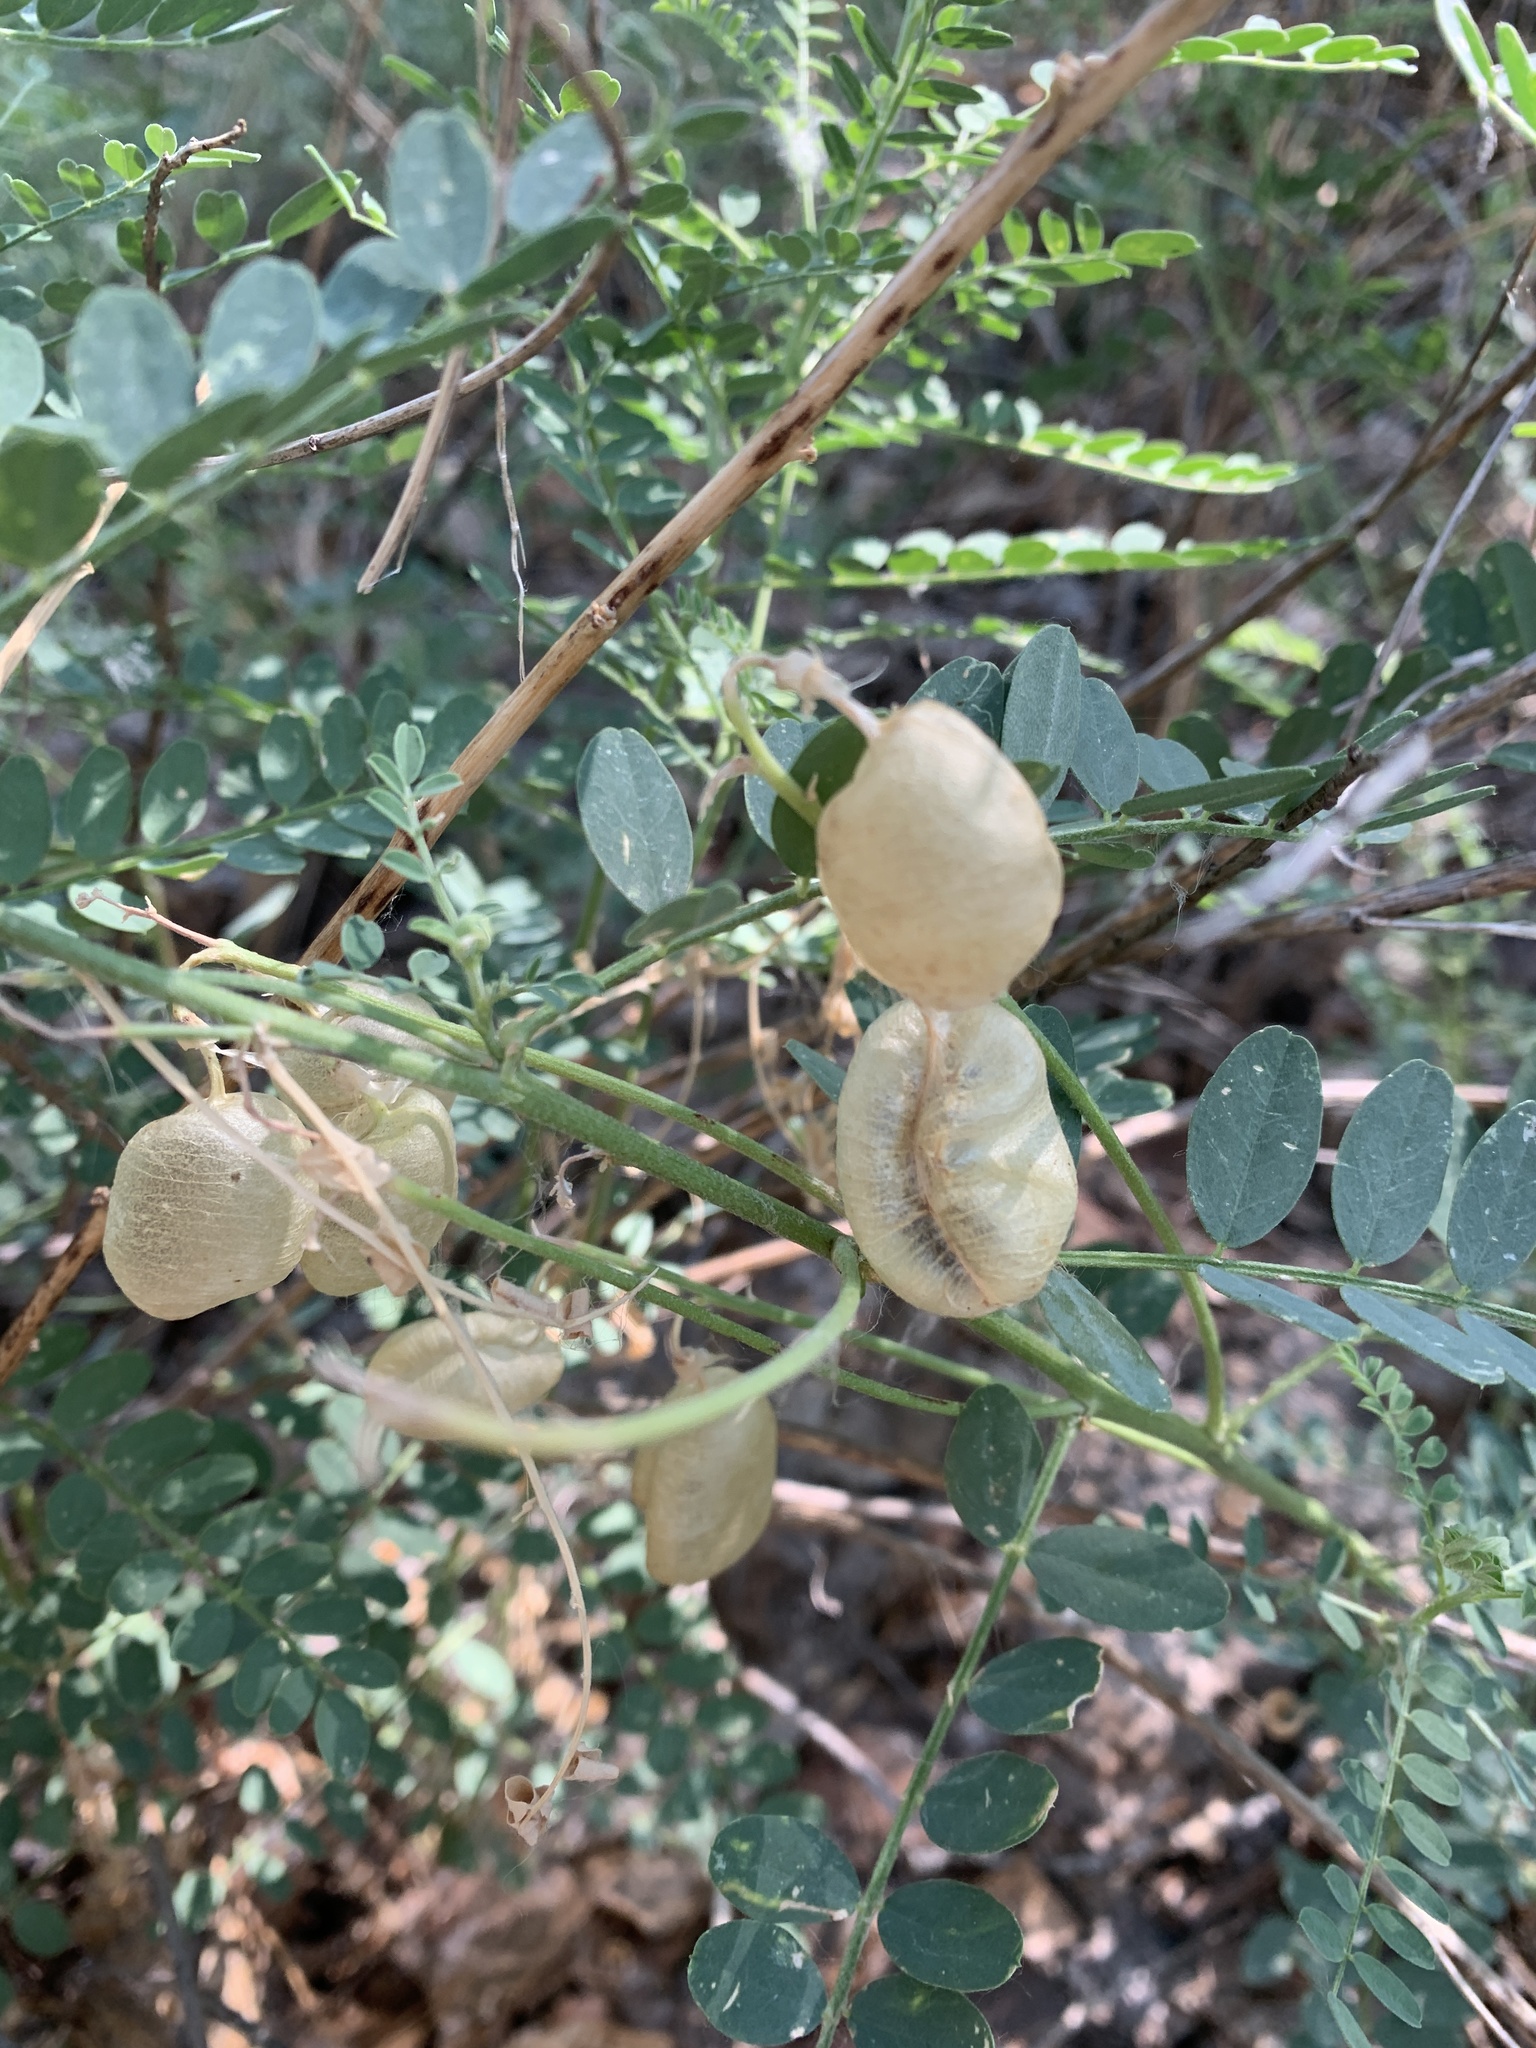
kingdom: Plantae
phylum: Tracheophyta
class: Magnoliopsida
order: Fabales
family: Fabaceae
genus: Sphaerophysa
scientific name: Sphaerophysa salsula
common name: Alkali swainsonpea
